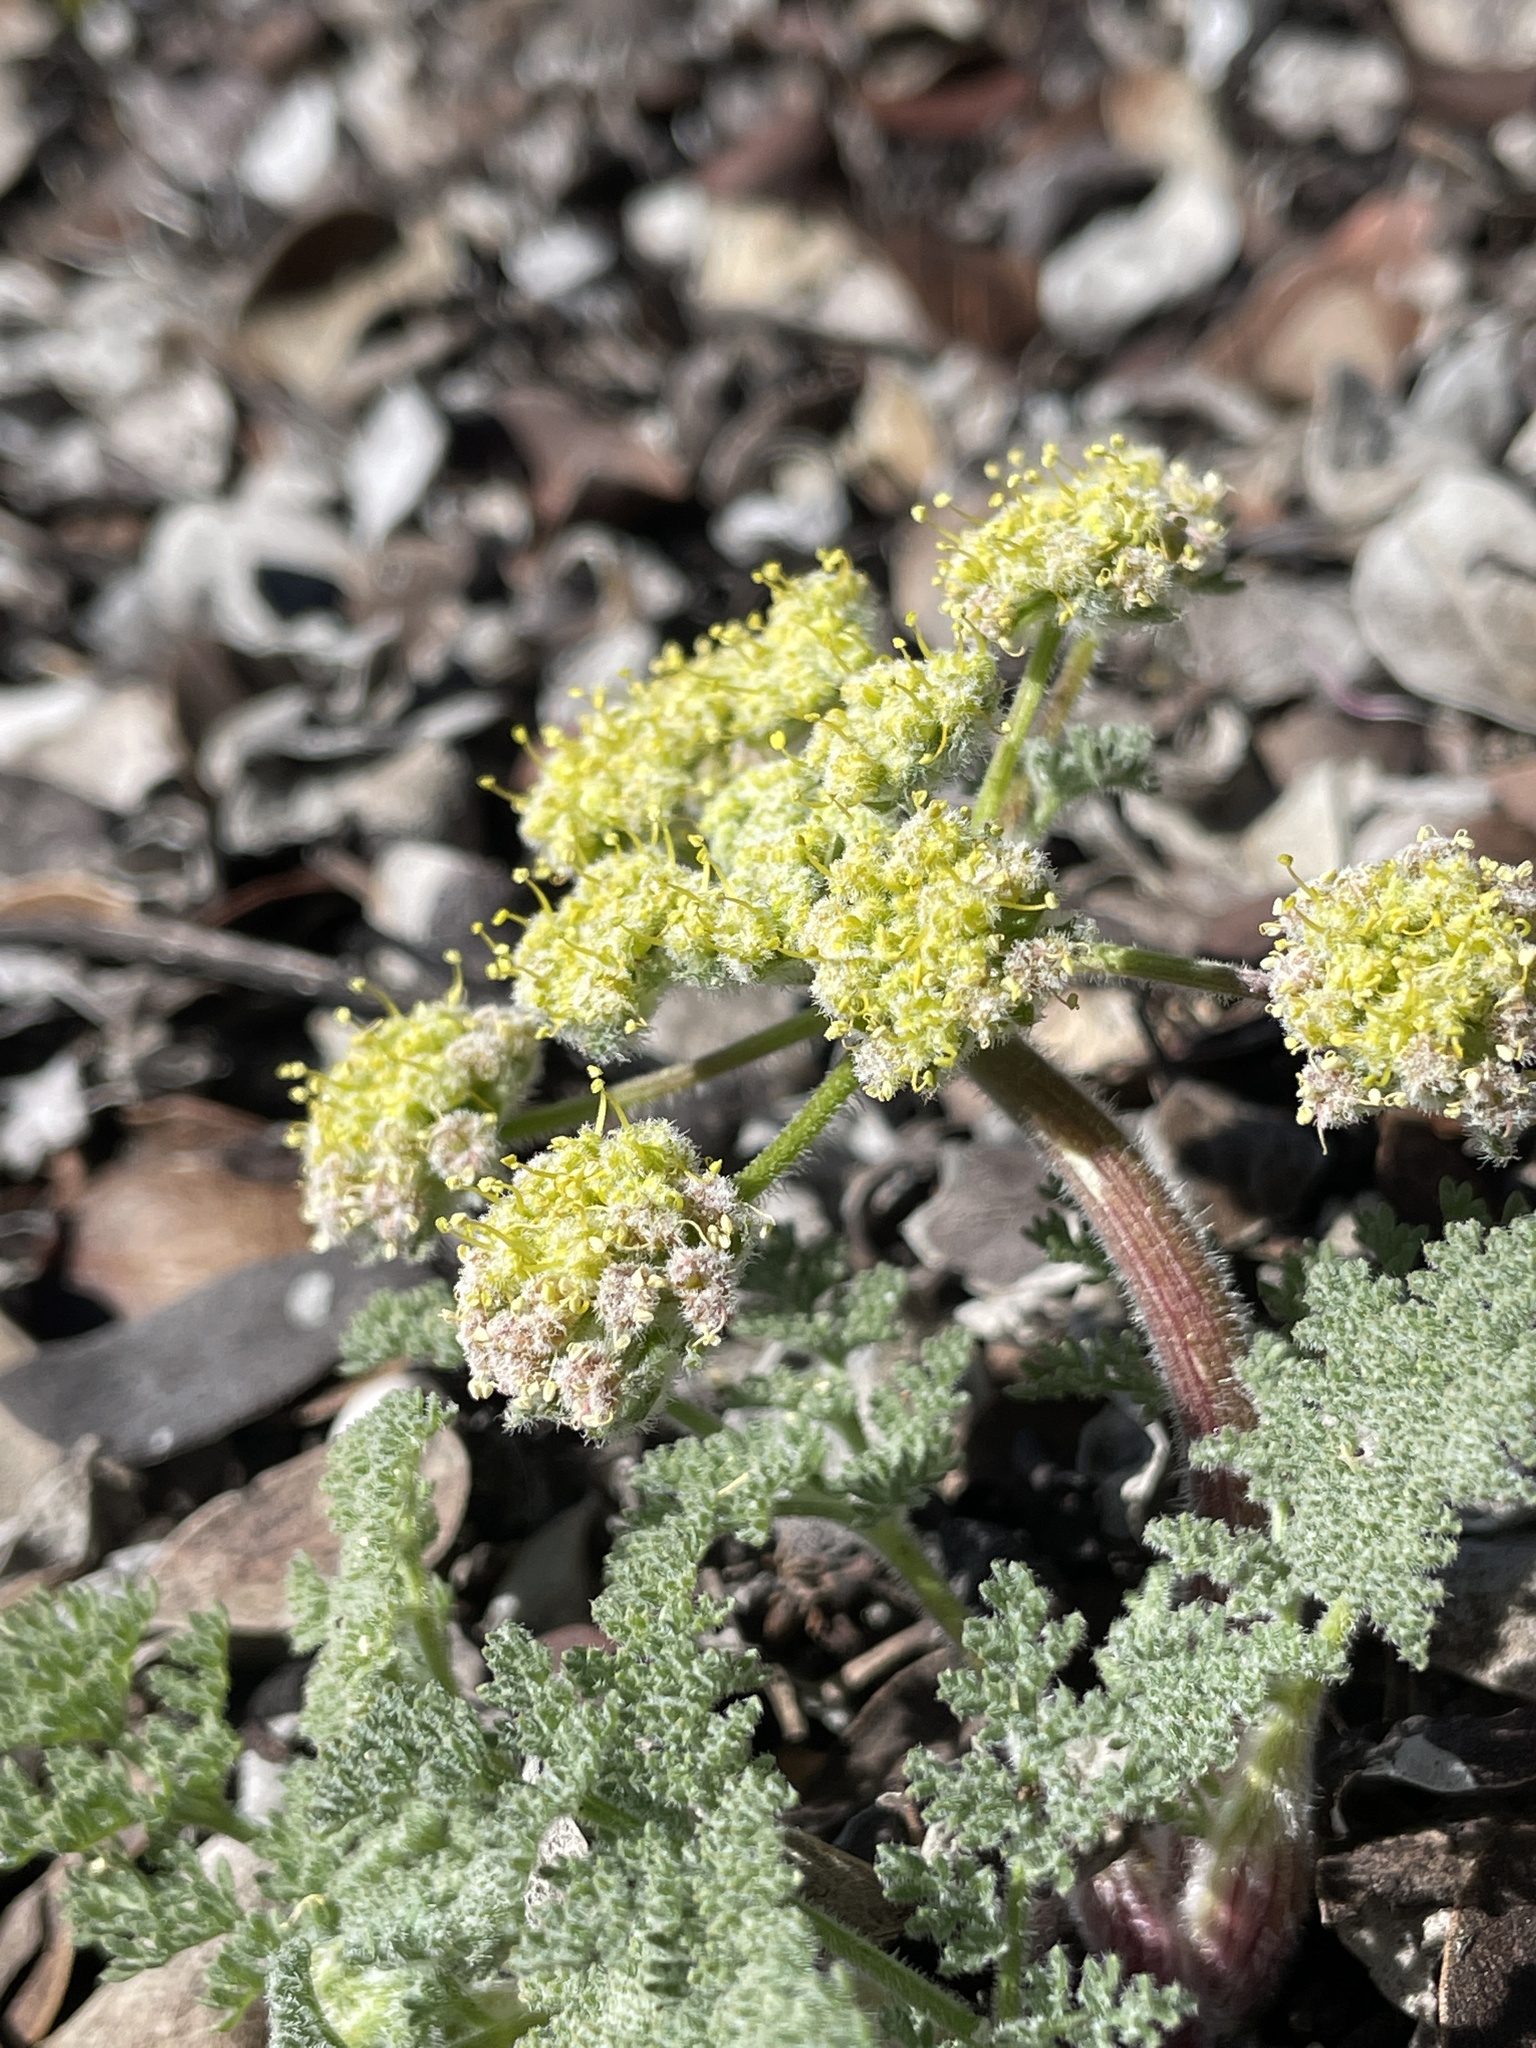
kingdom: Plantae
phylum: Tracheophyta
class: Magnoliopsida
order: Apiales
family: Apiaceae
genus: Lomatium
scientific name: Lomatium dasycarpum
